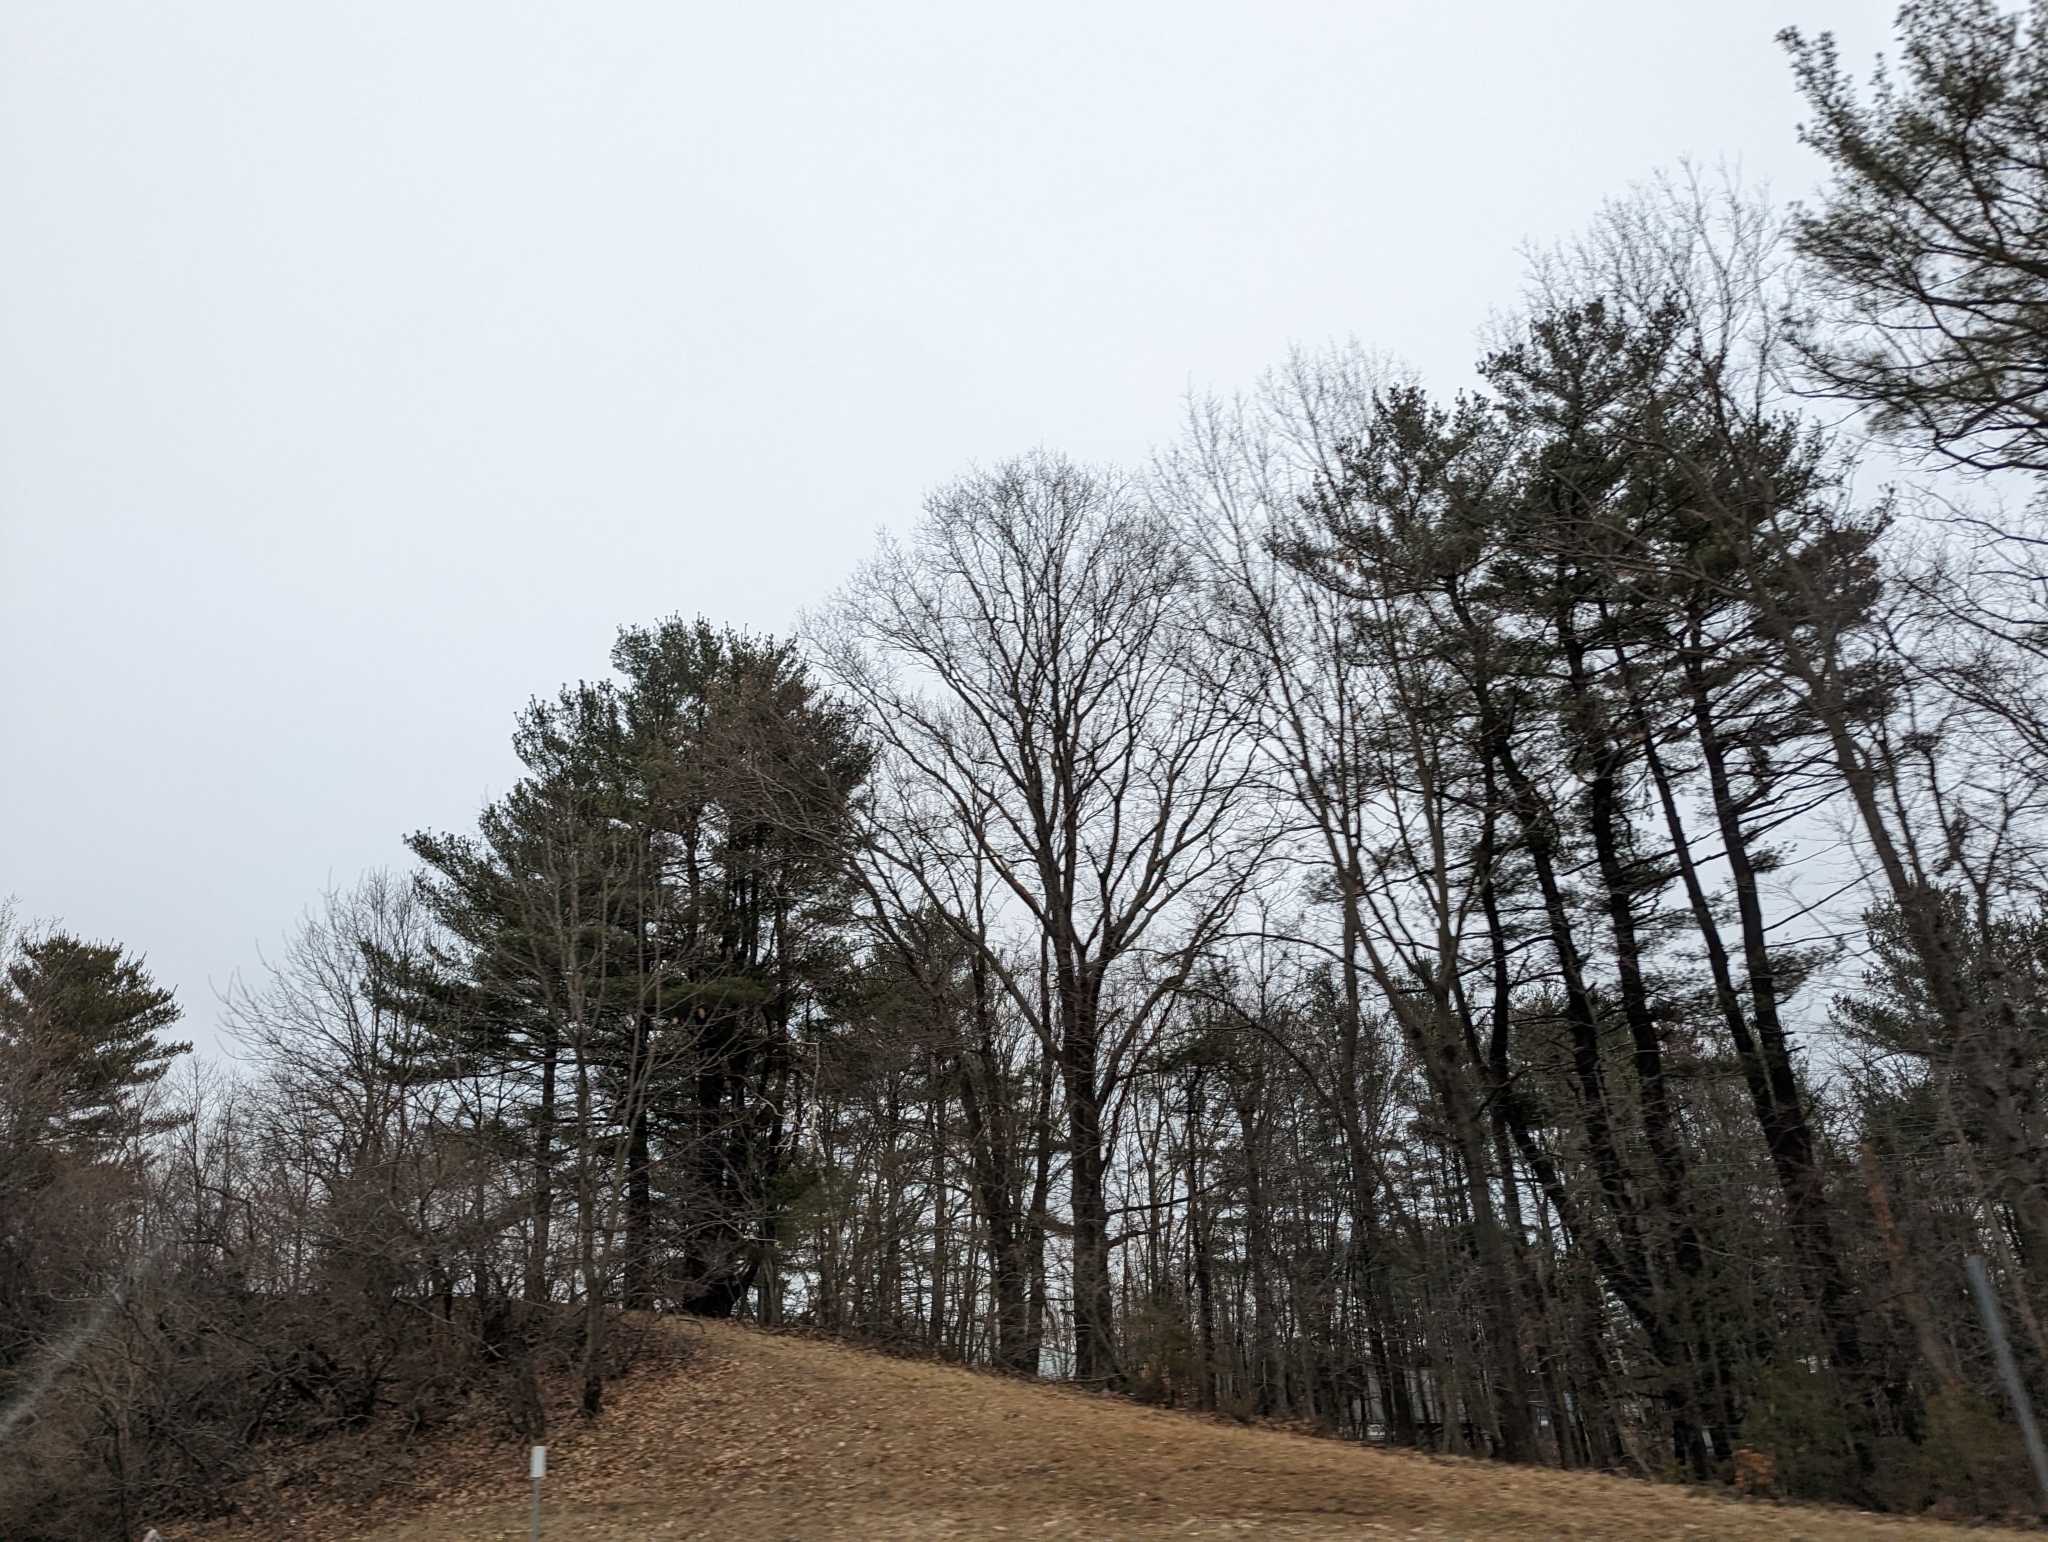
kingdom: Plantae
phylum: Tracheophyta
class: Pinopsida
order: Pinales
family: Pinaceae
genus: Pinus
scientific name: Pinus strobus
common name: Weymouth pine
